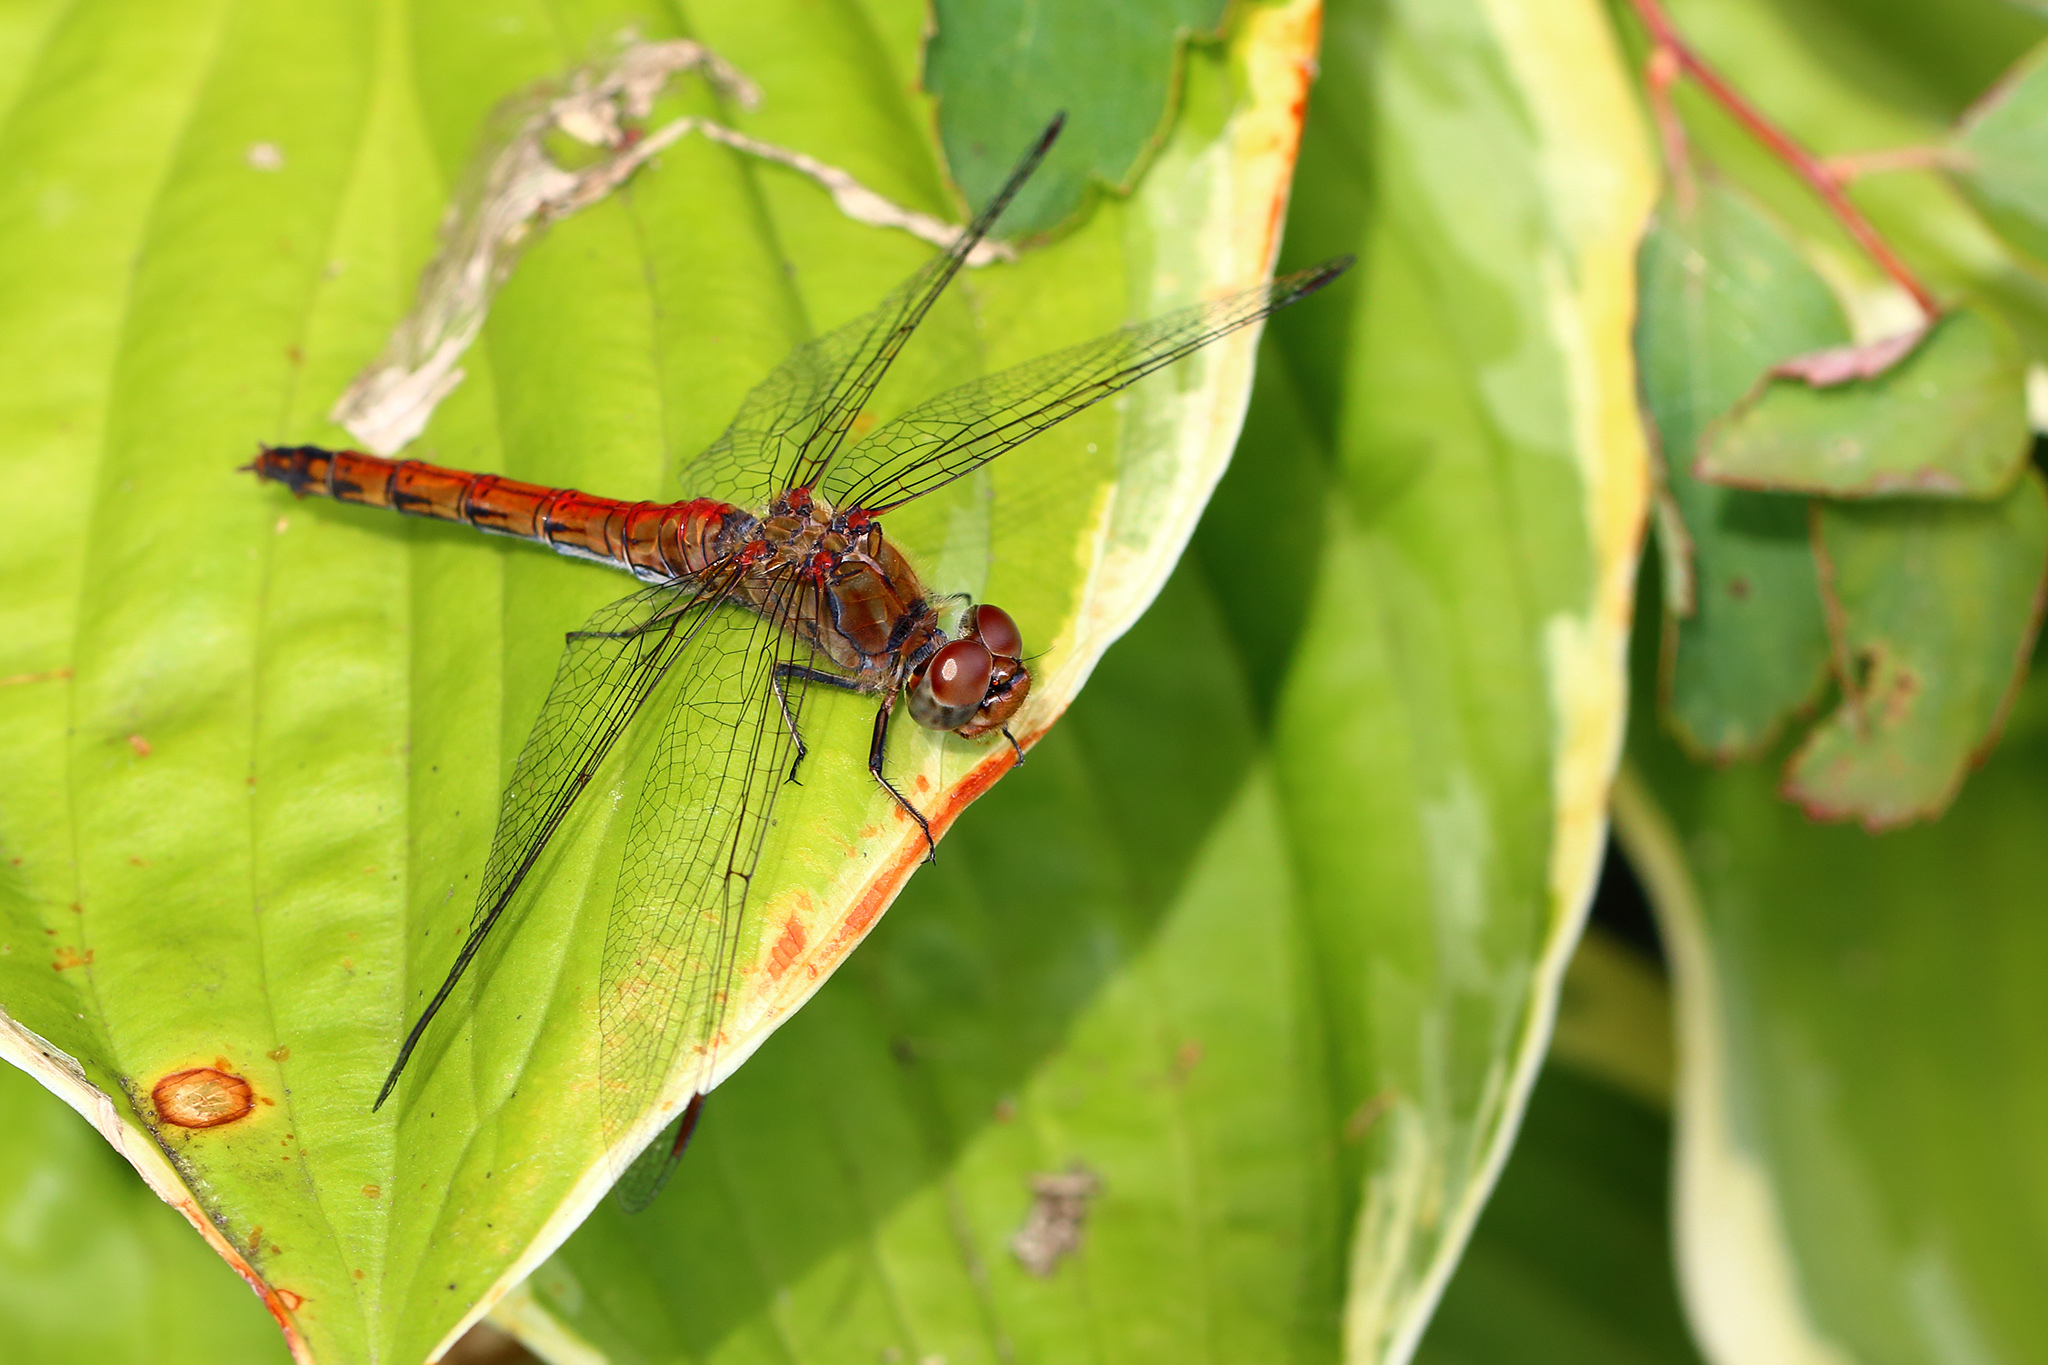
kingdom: Animalia
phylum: Arthropoda
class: Insecta
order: Odonata
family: Libellulidae
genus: Sympetrum
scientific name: Sympetrum vulgatum
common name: Vagrant darter
